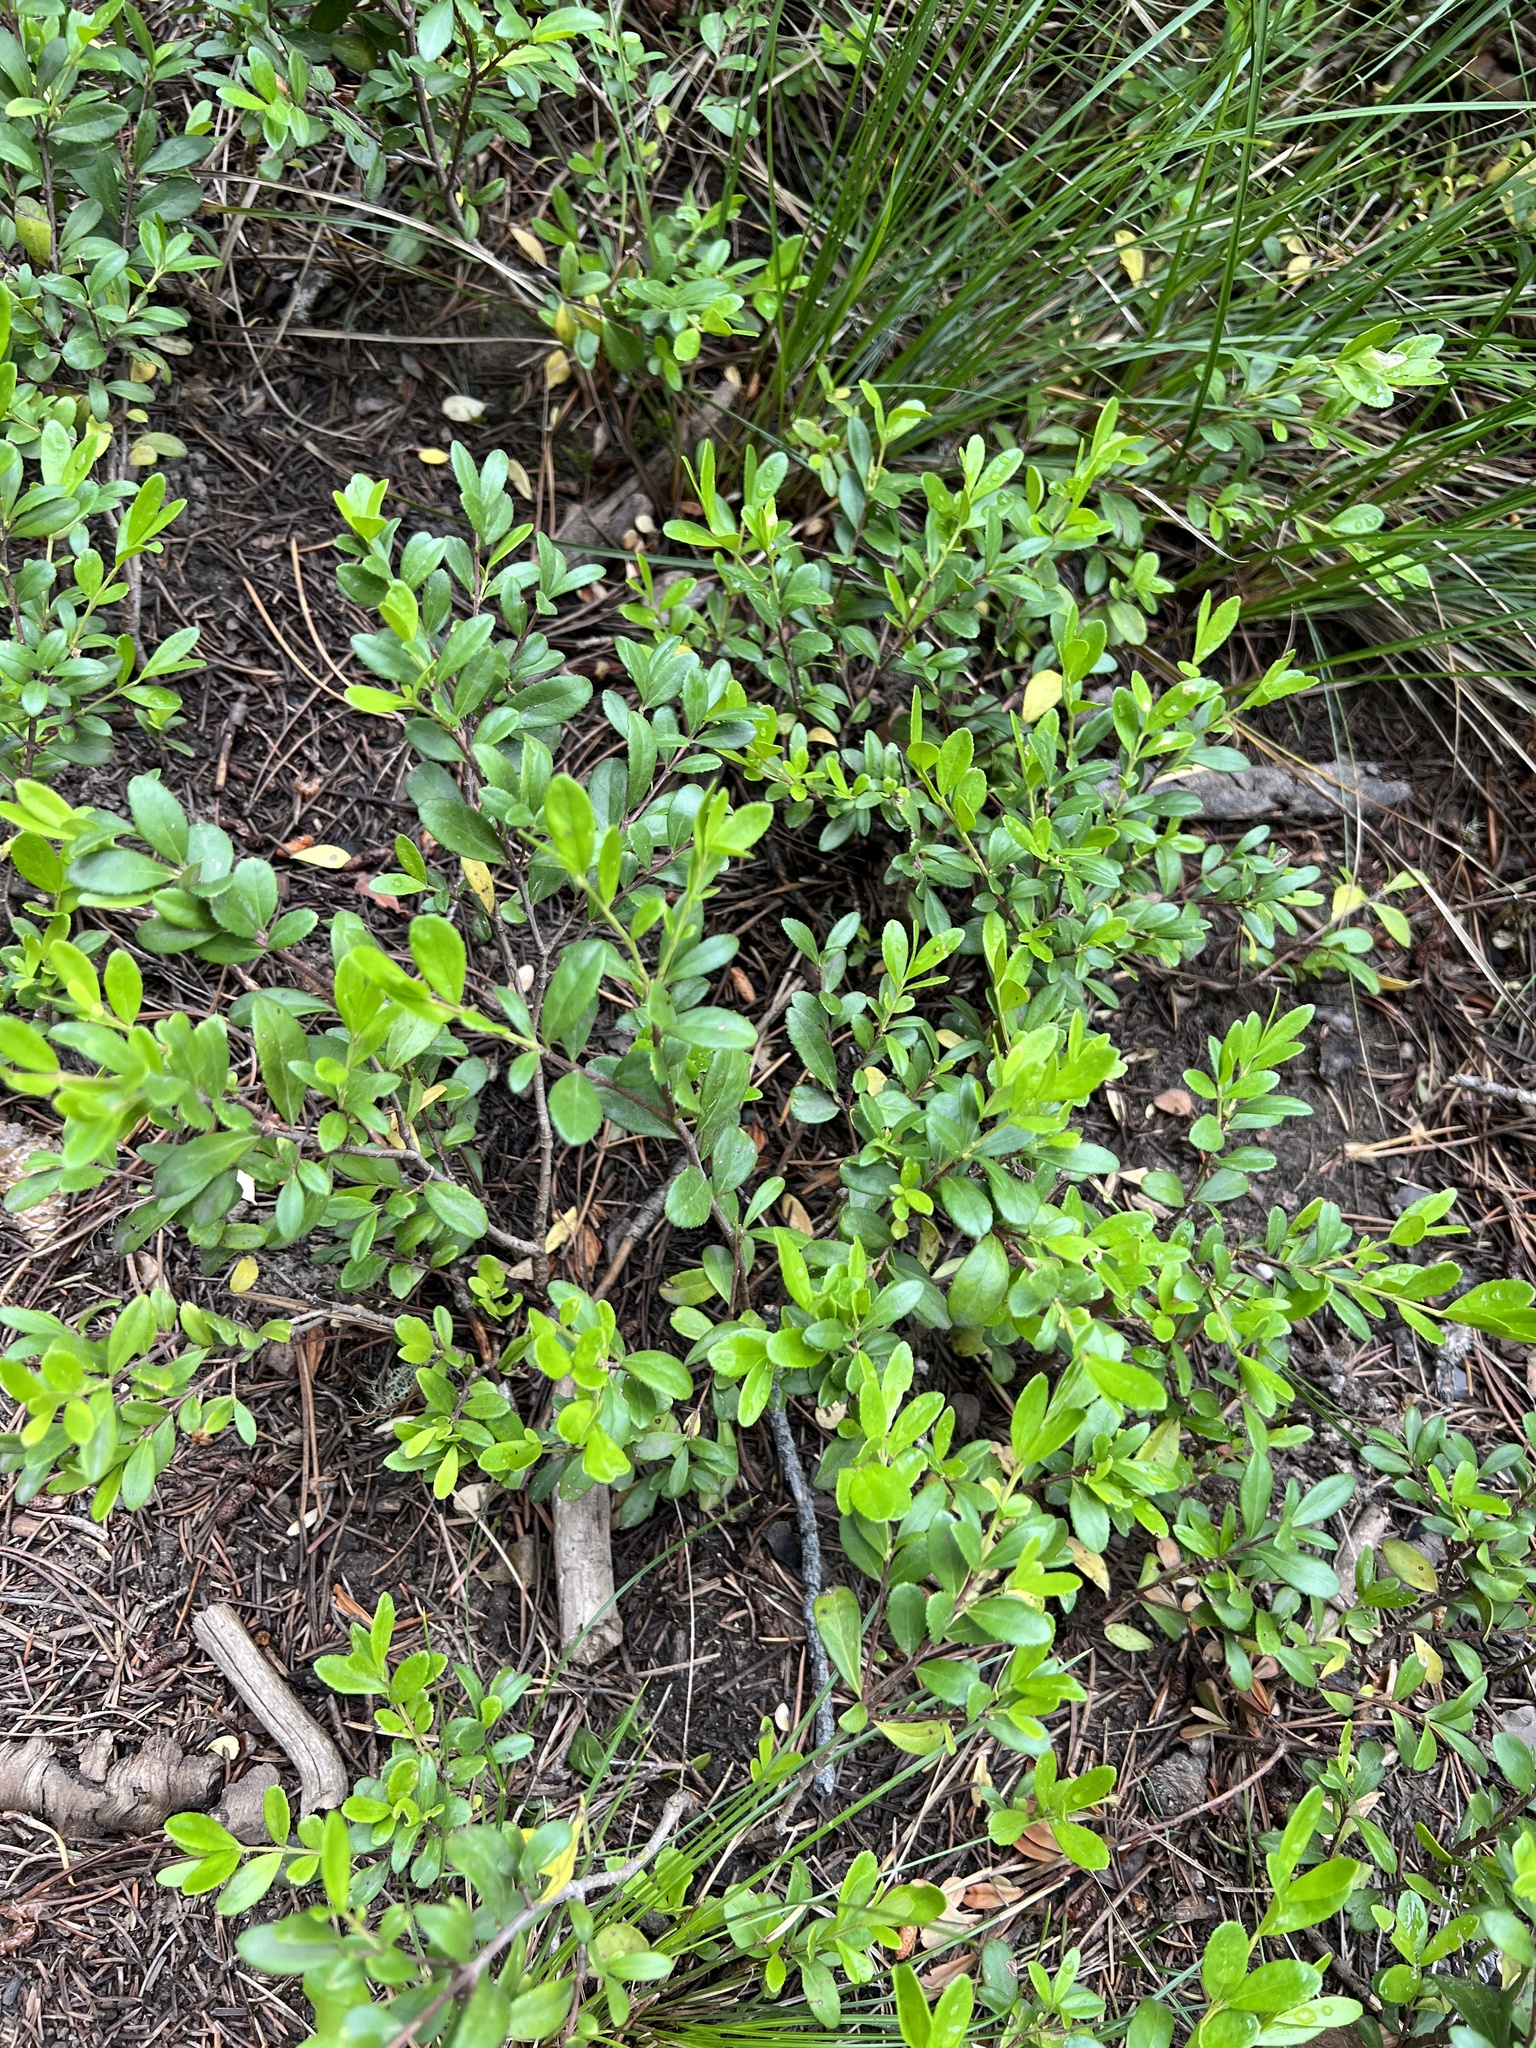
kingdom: Plantae
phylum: Tracheophyta
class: Magnoliopsida
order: Celastrales
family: Celastraceae
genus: Paxistima
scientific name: Paxistima myrsinites
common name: Mountain-lover
